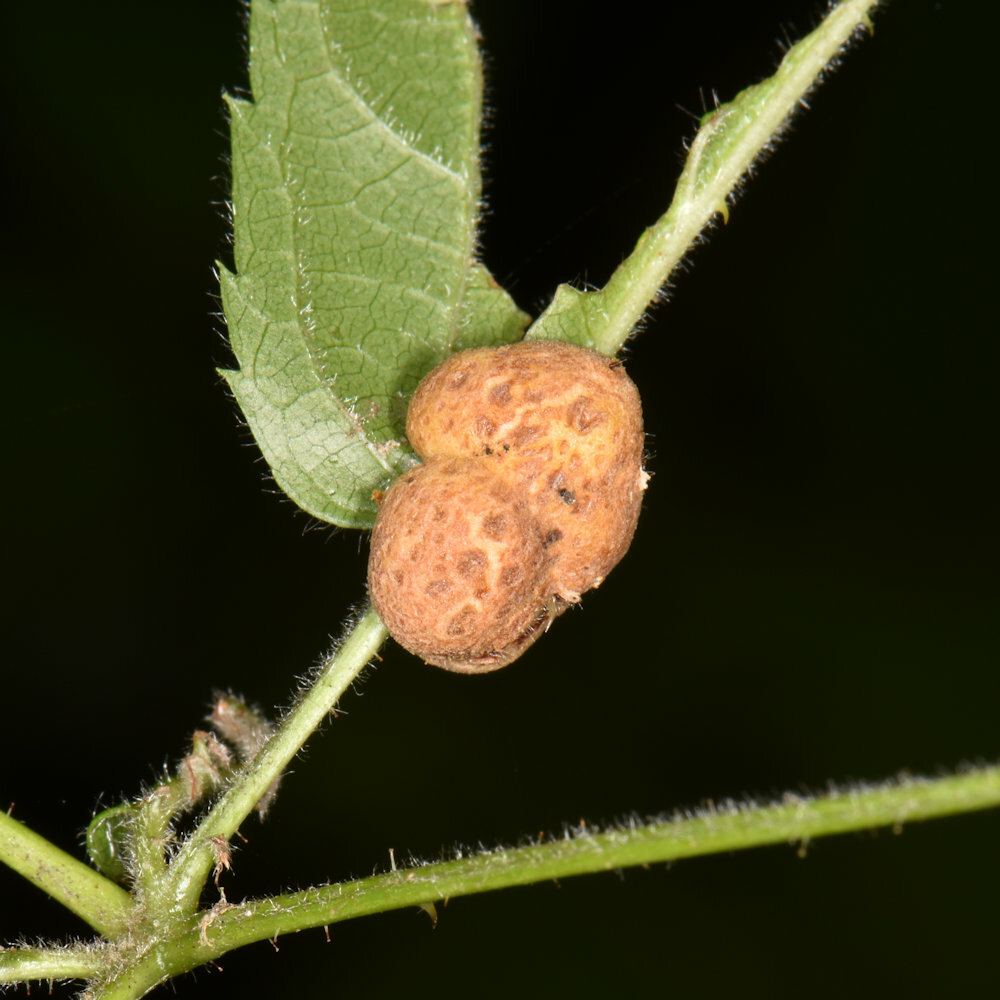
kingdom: Animalia
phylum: Arthropoda
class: Insecta
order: Diptera
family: Cecidomyiidae
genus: Neolasioptera
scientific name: Neolasioptera farinosa
